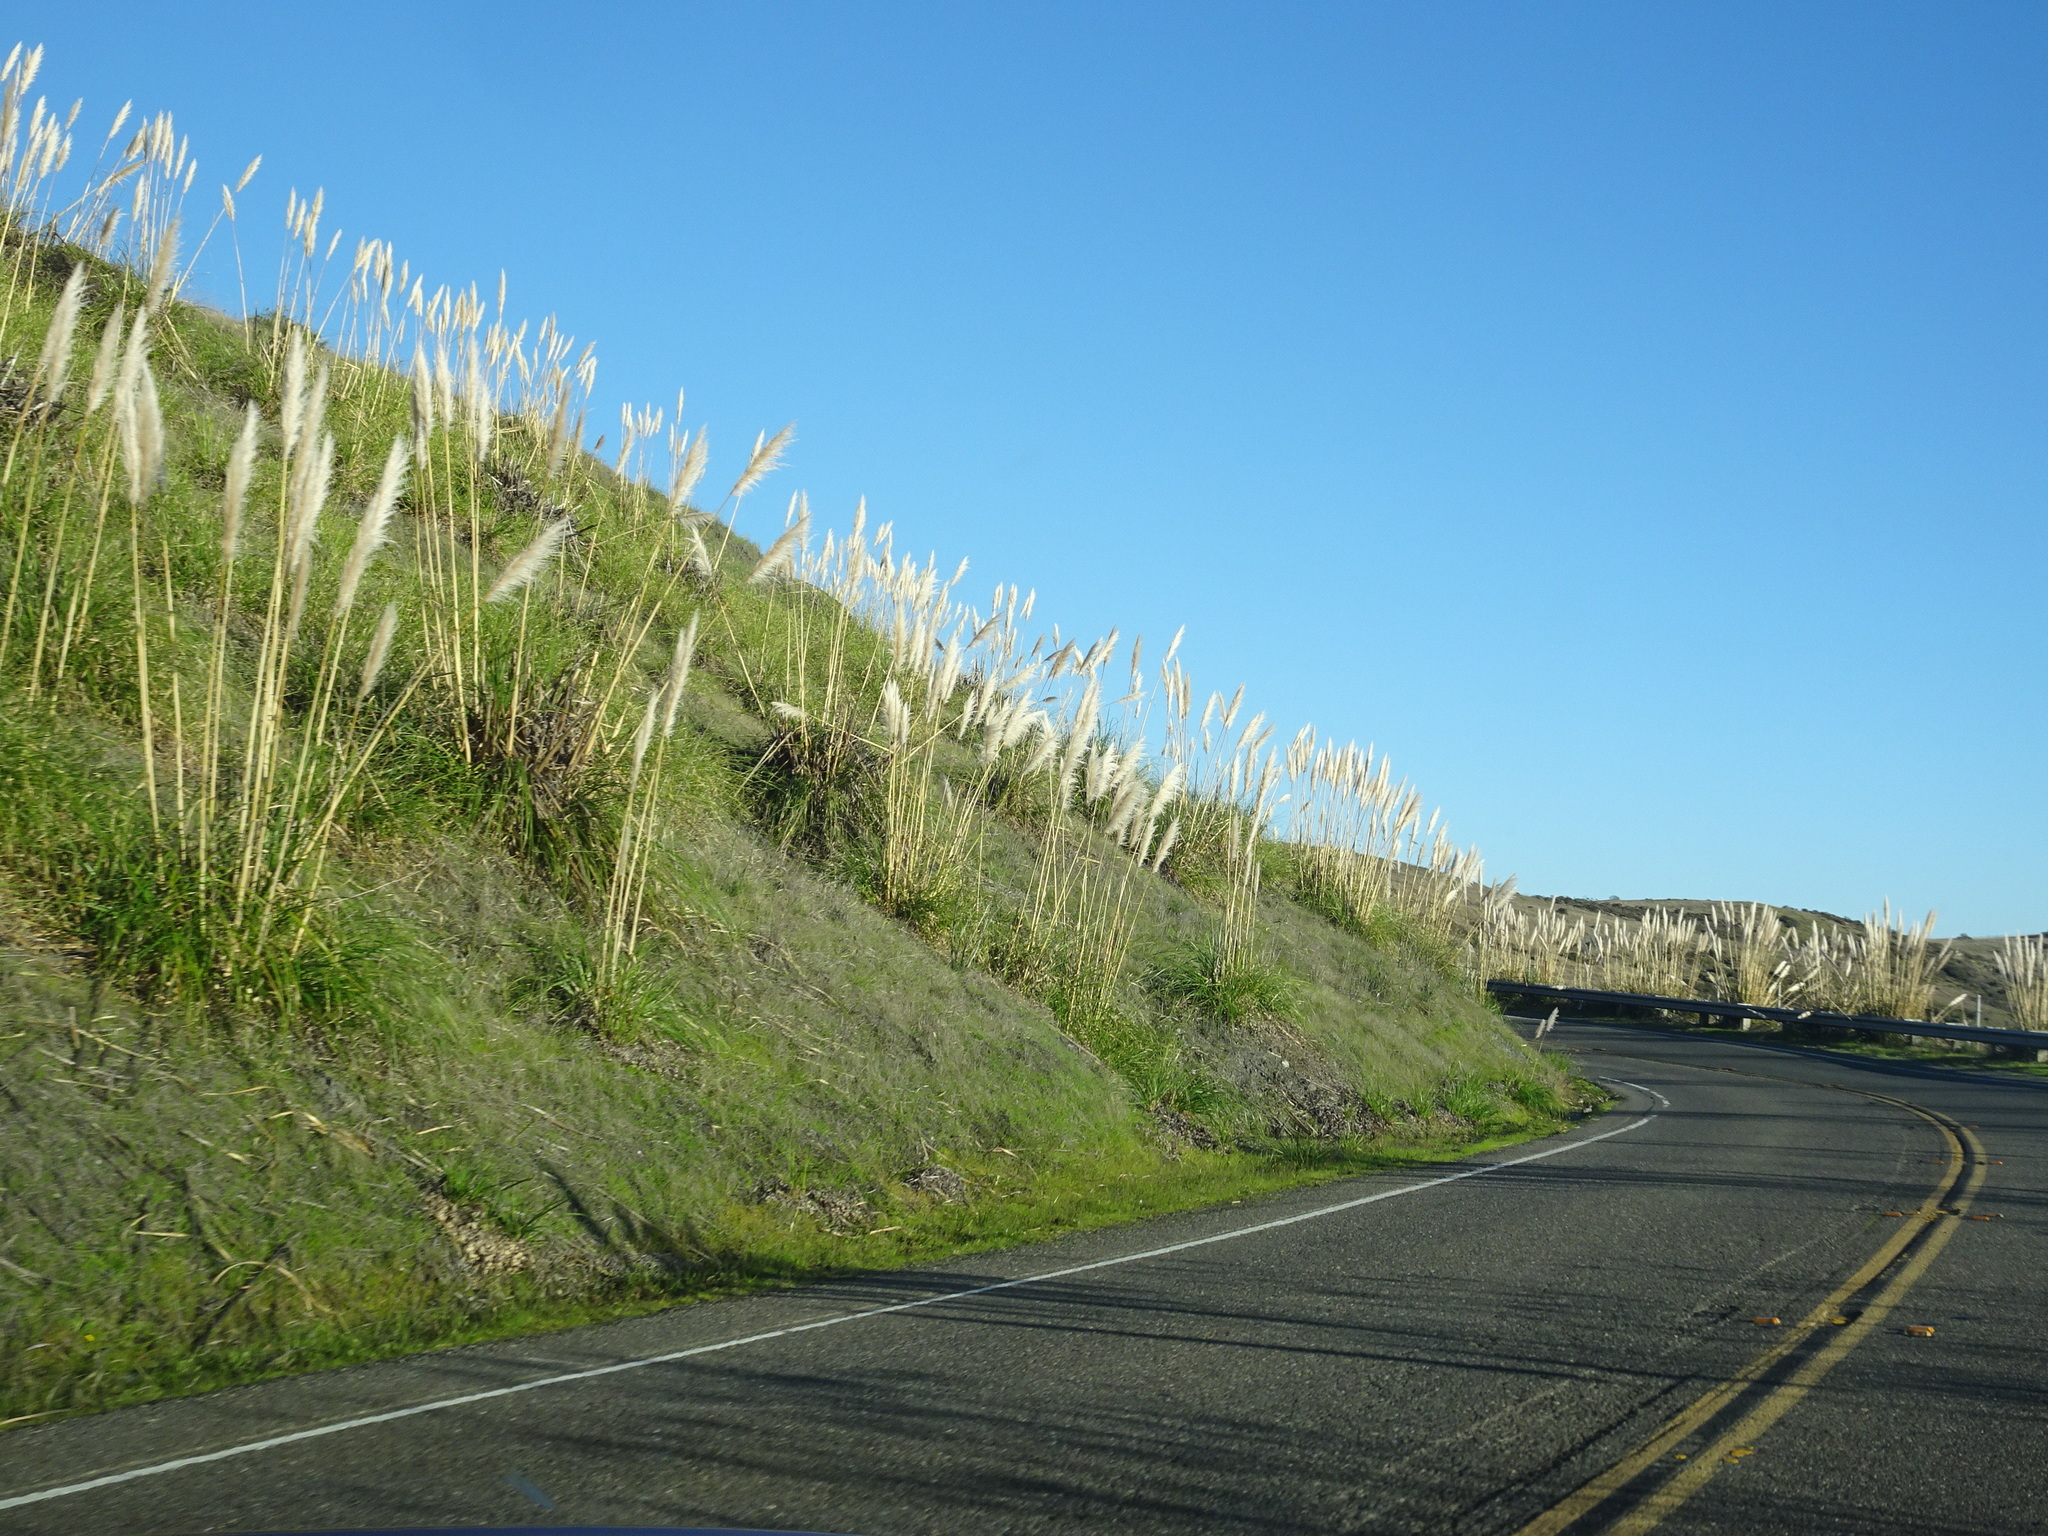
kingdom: Plantae
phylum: Tracheophyta
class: Liliopsida
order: Poales
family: Poaceae
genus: Cortaderia
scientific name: Cortaderia selloana
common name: Uruguayan pampas grass
